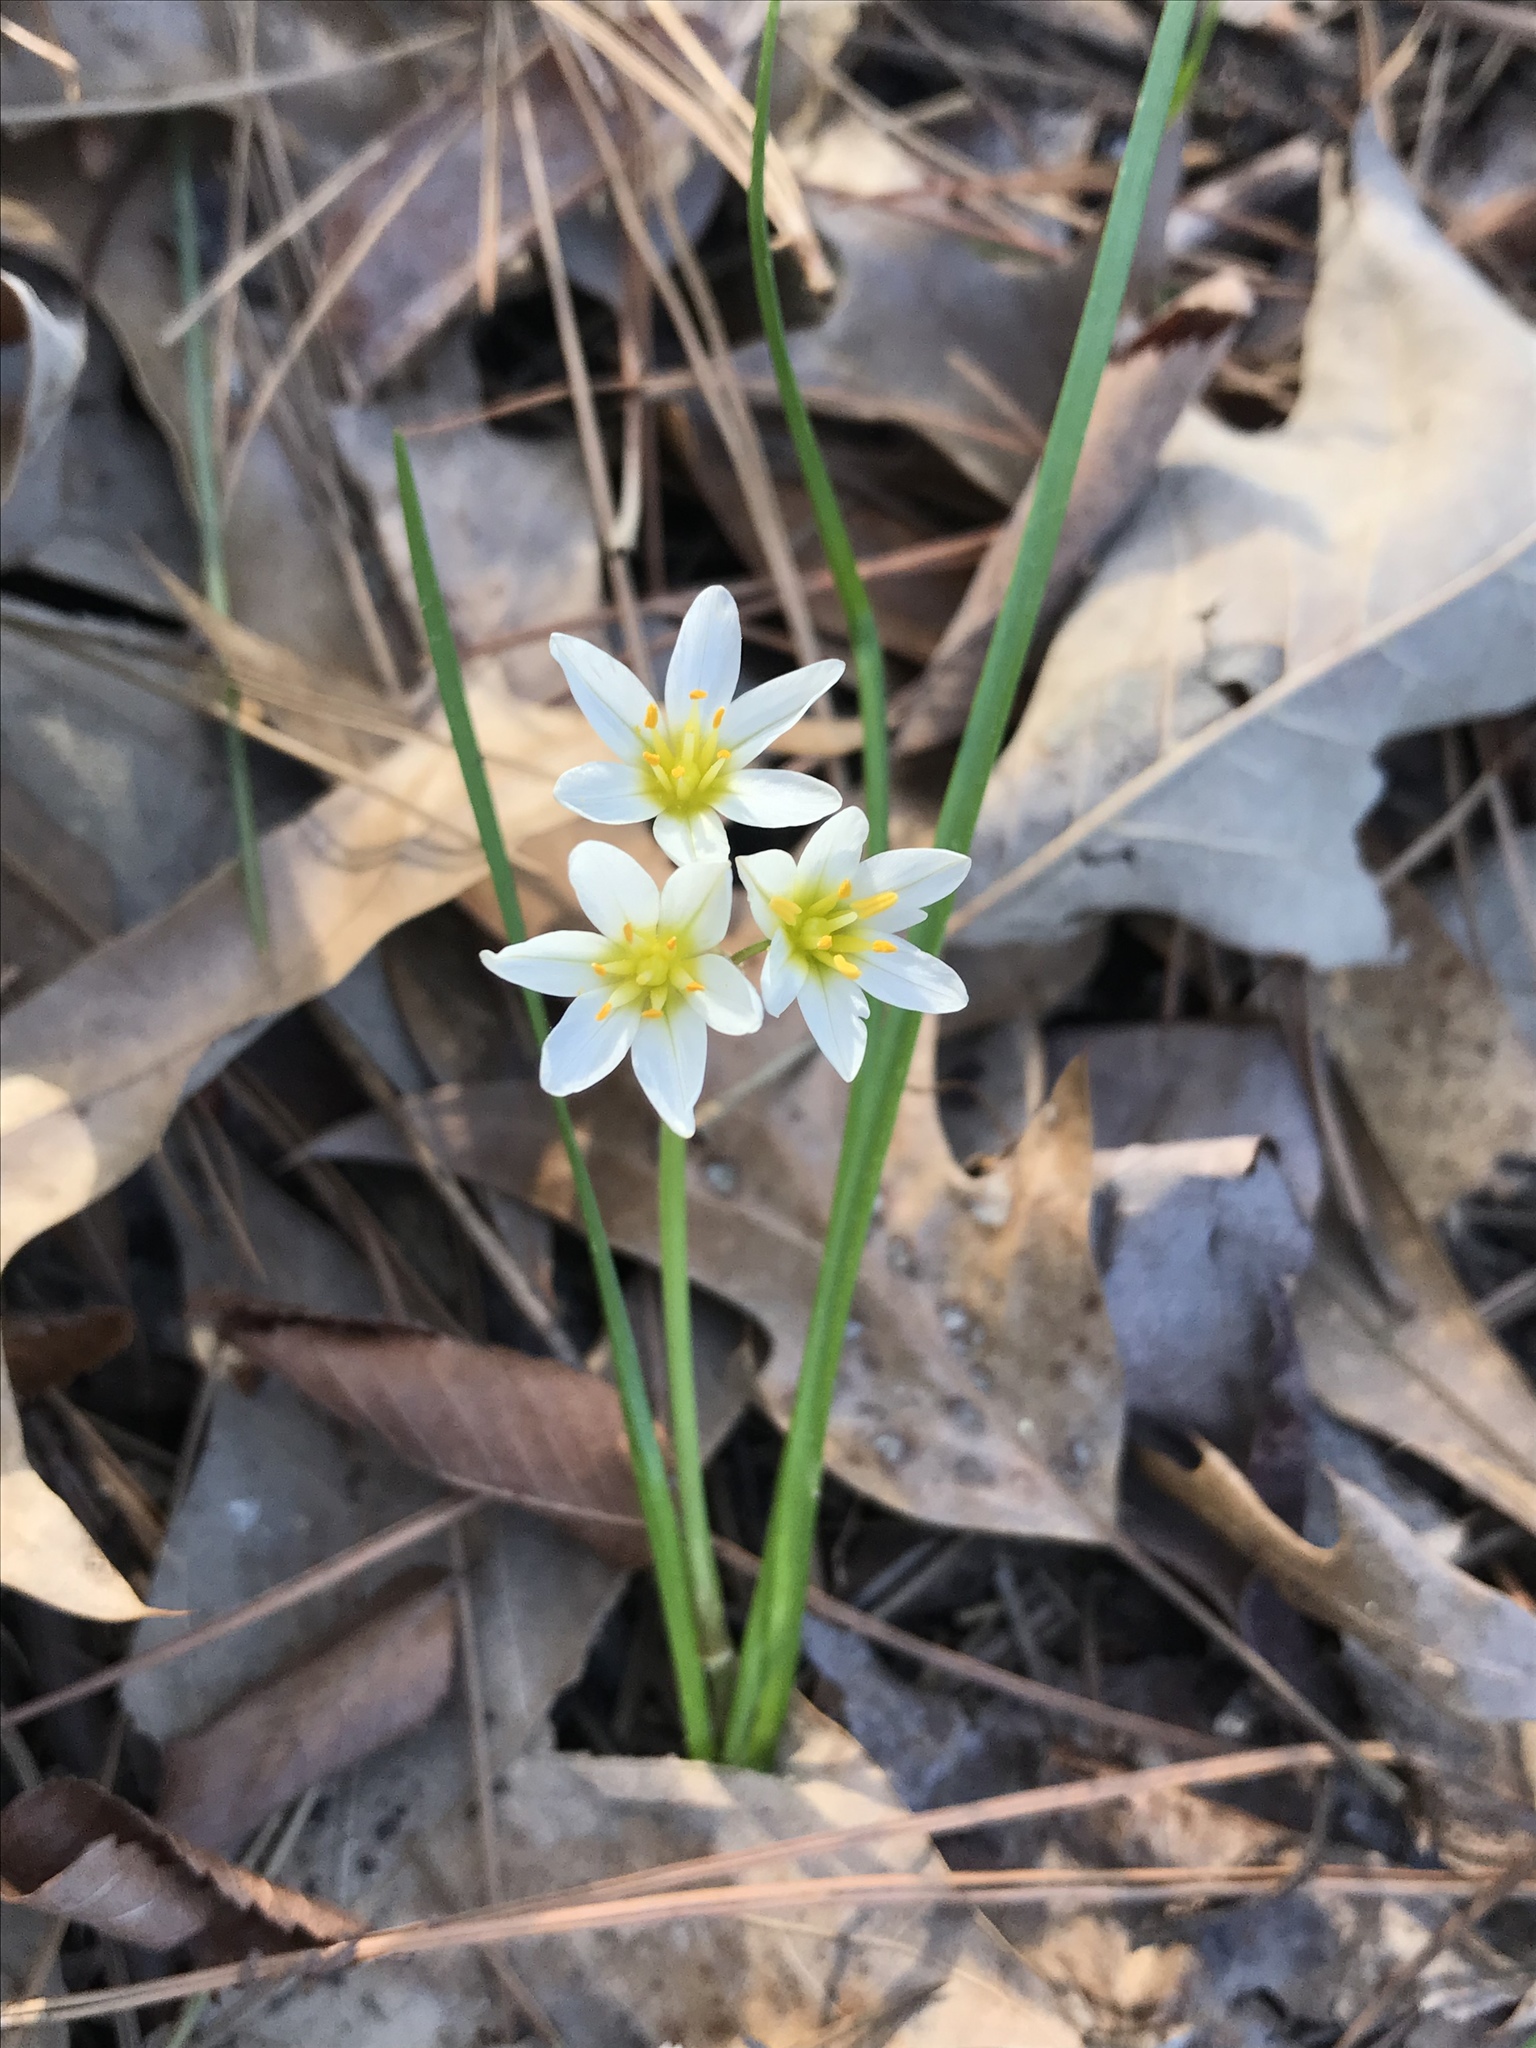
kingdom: Plantae
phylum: Tracheophyta
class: Liliopsida
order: Asparagales
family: Amaryllidaceae
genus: Nothoscordum
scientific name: Nothoscordum bivalve
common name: Crow-poison
